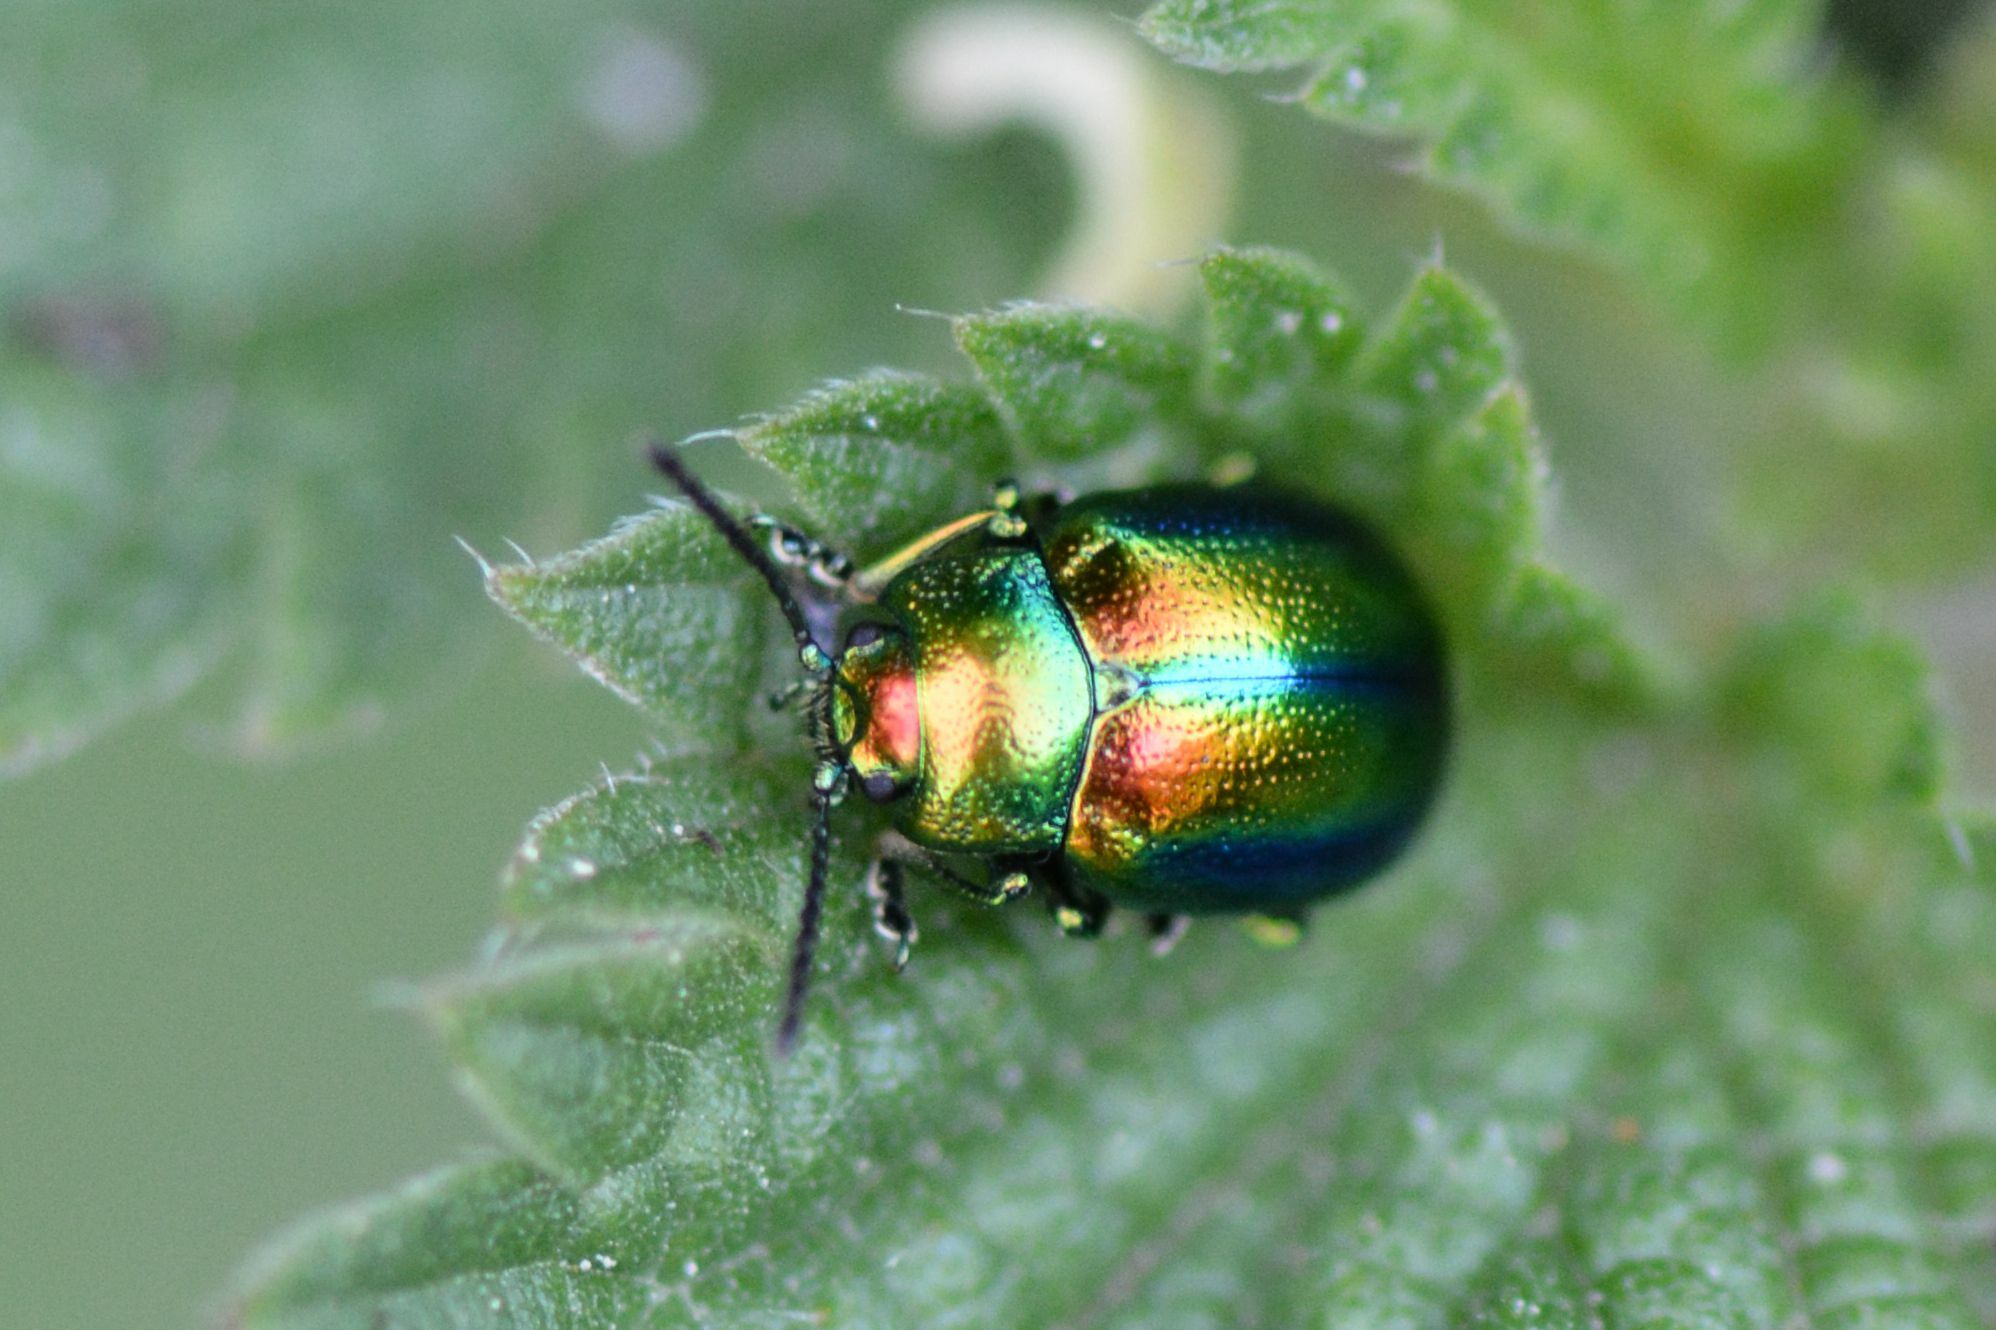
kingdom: Animalia
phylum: Arthropoda
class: Insecta
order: Coleoptera
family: Chrysomelidae
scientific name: Chrysomelidae
